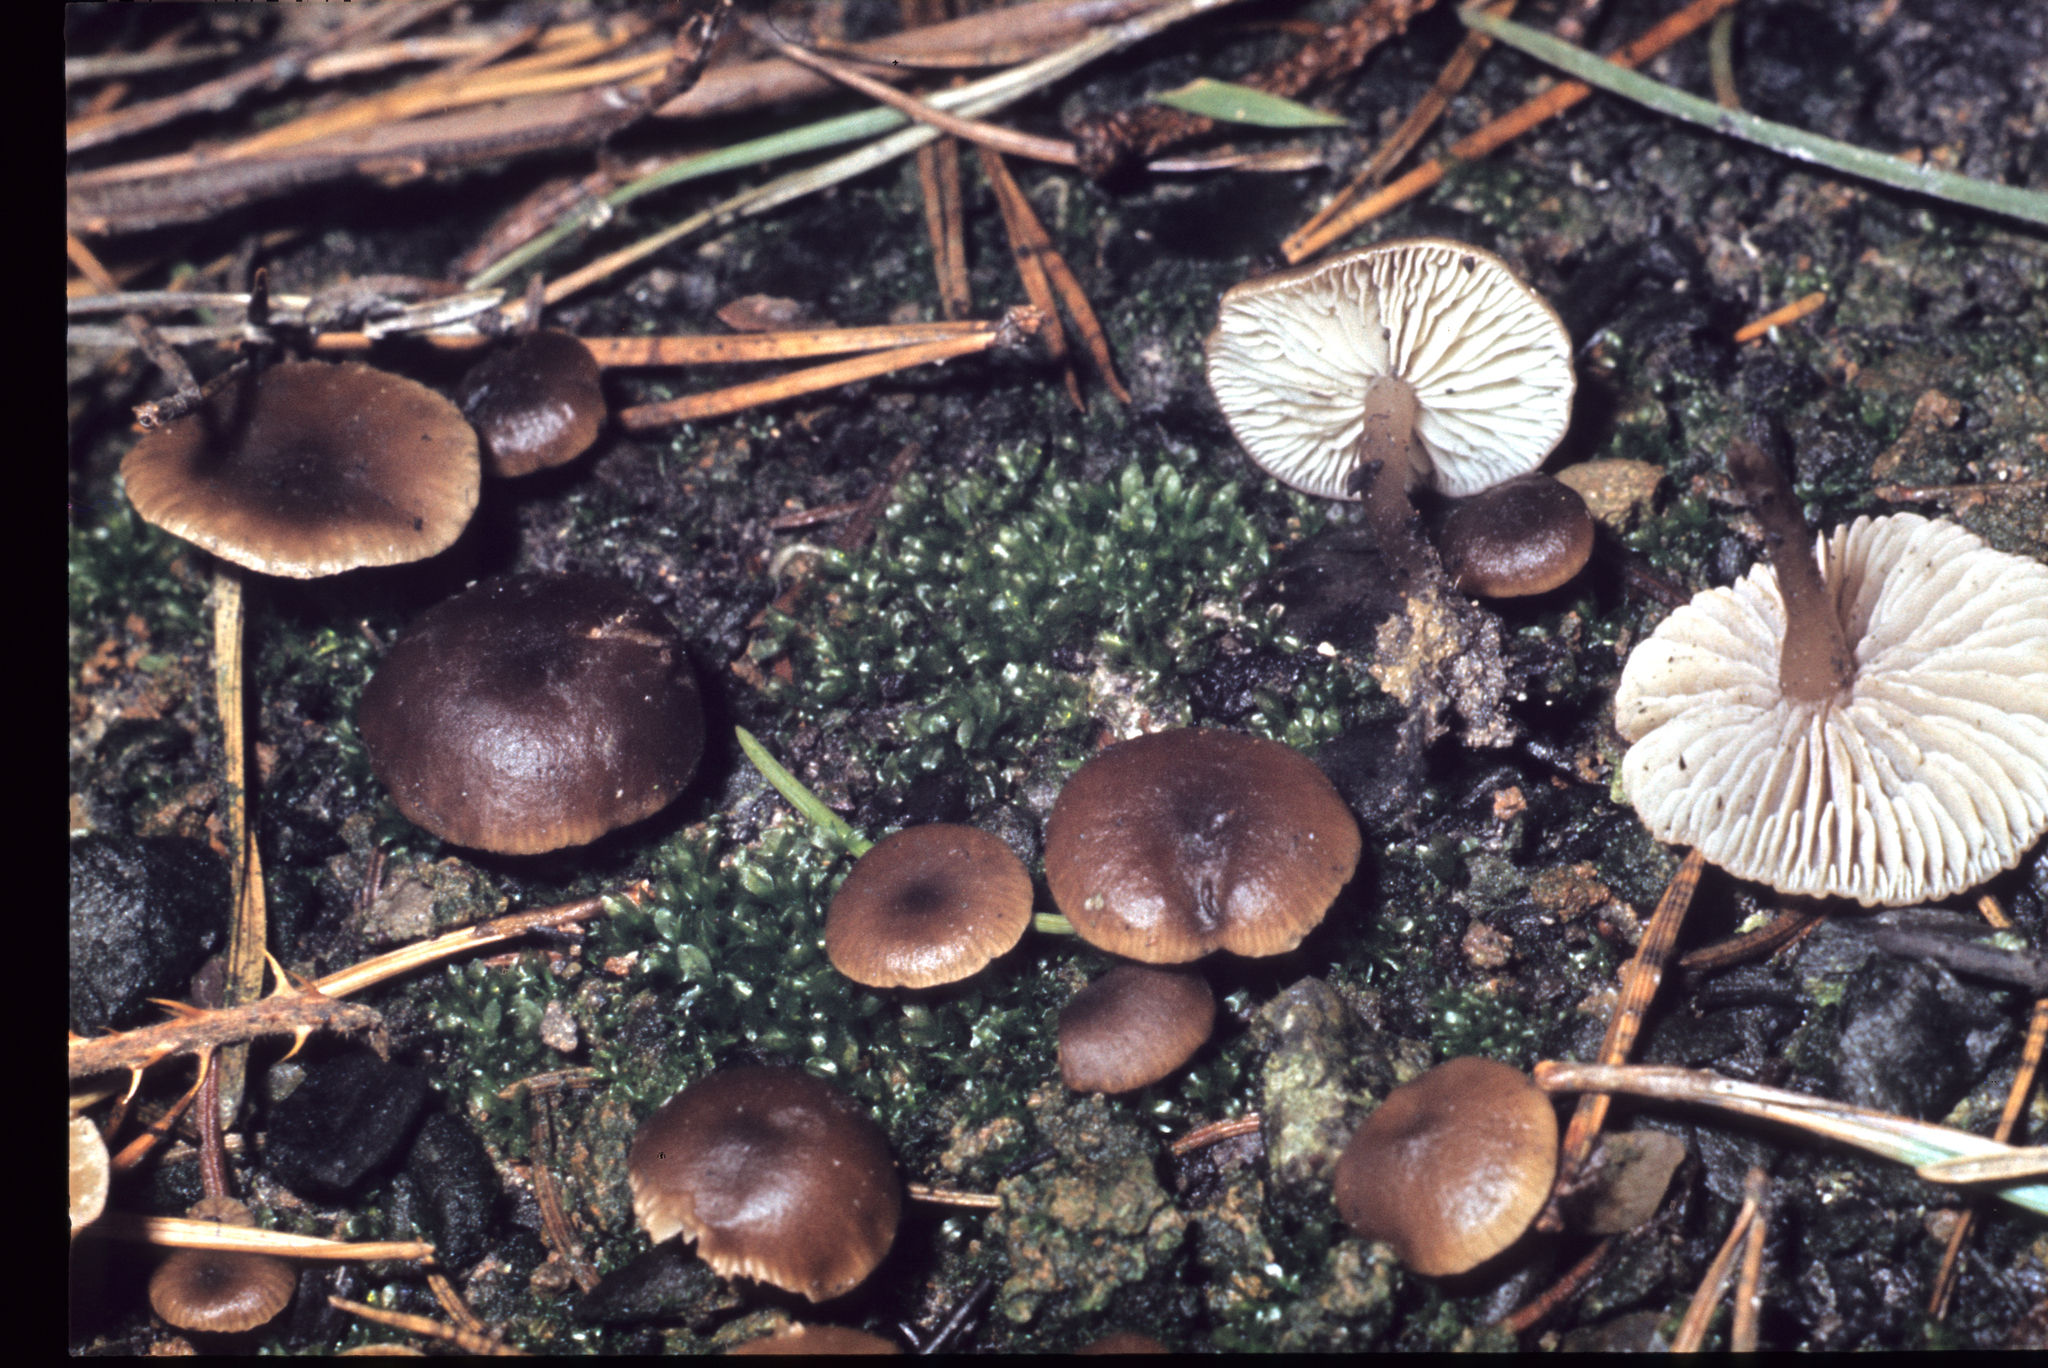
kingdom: Fungi
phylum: Basidiomycota
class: Agaricomycetes
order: Agaricales
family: Lyophyllaceae
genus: Tephrocybe
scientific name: Tephrocybe atrata
